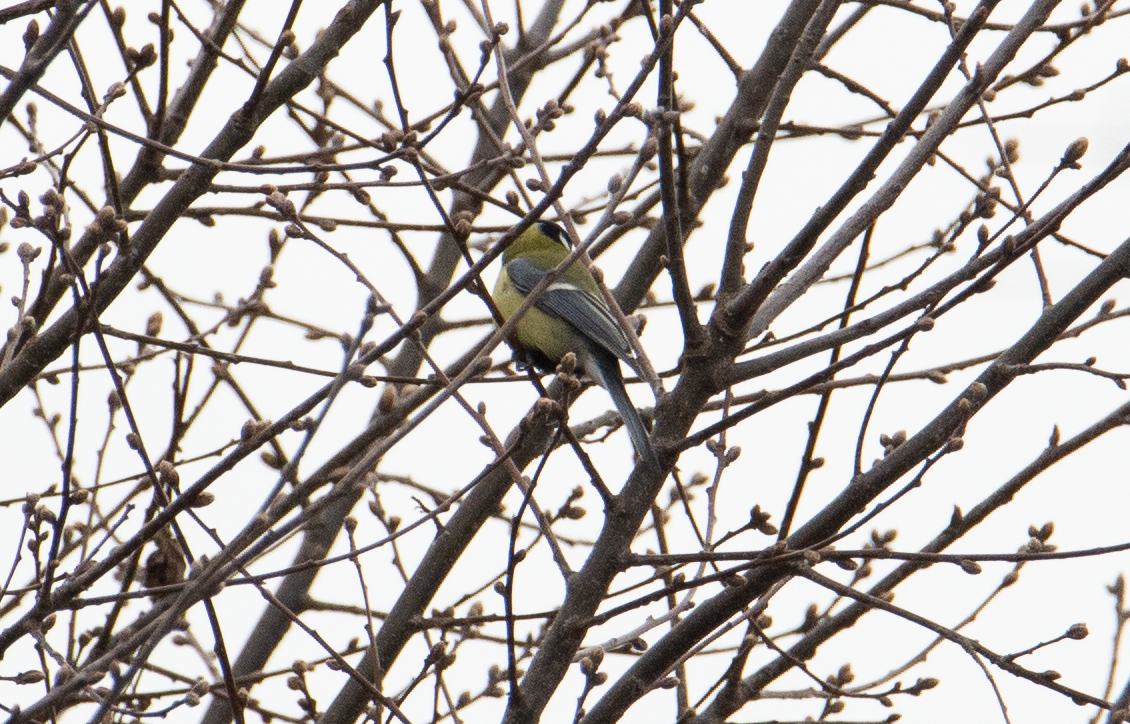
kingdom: Animalia
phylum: Chordata
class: Aves
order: Passeriformes
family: Paridae
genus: Parus
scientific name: Parus major
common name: Great tit
